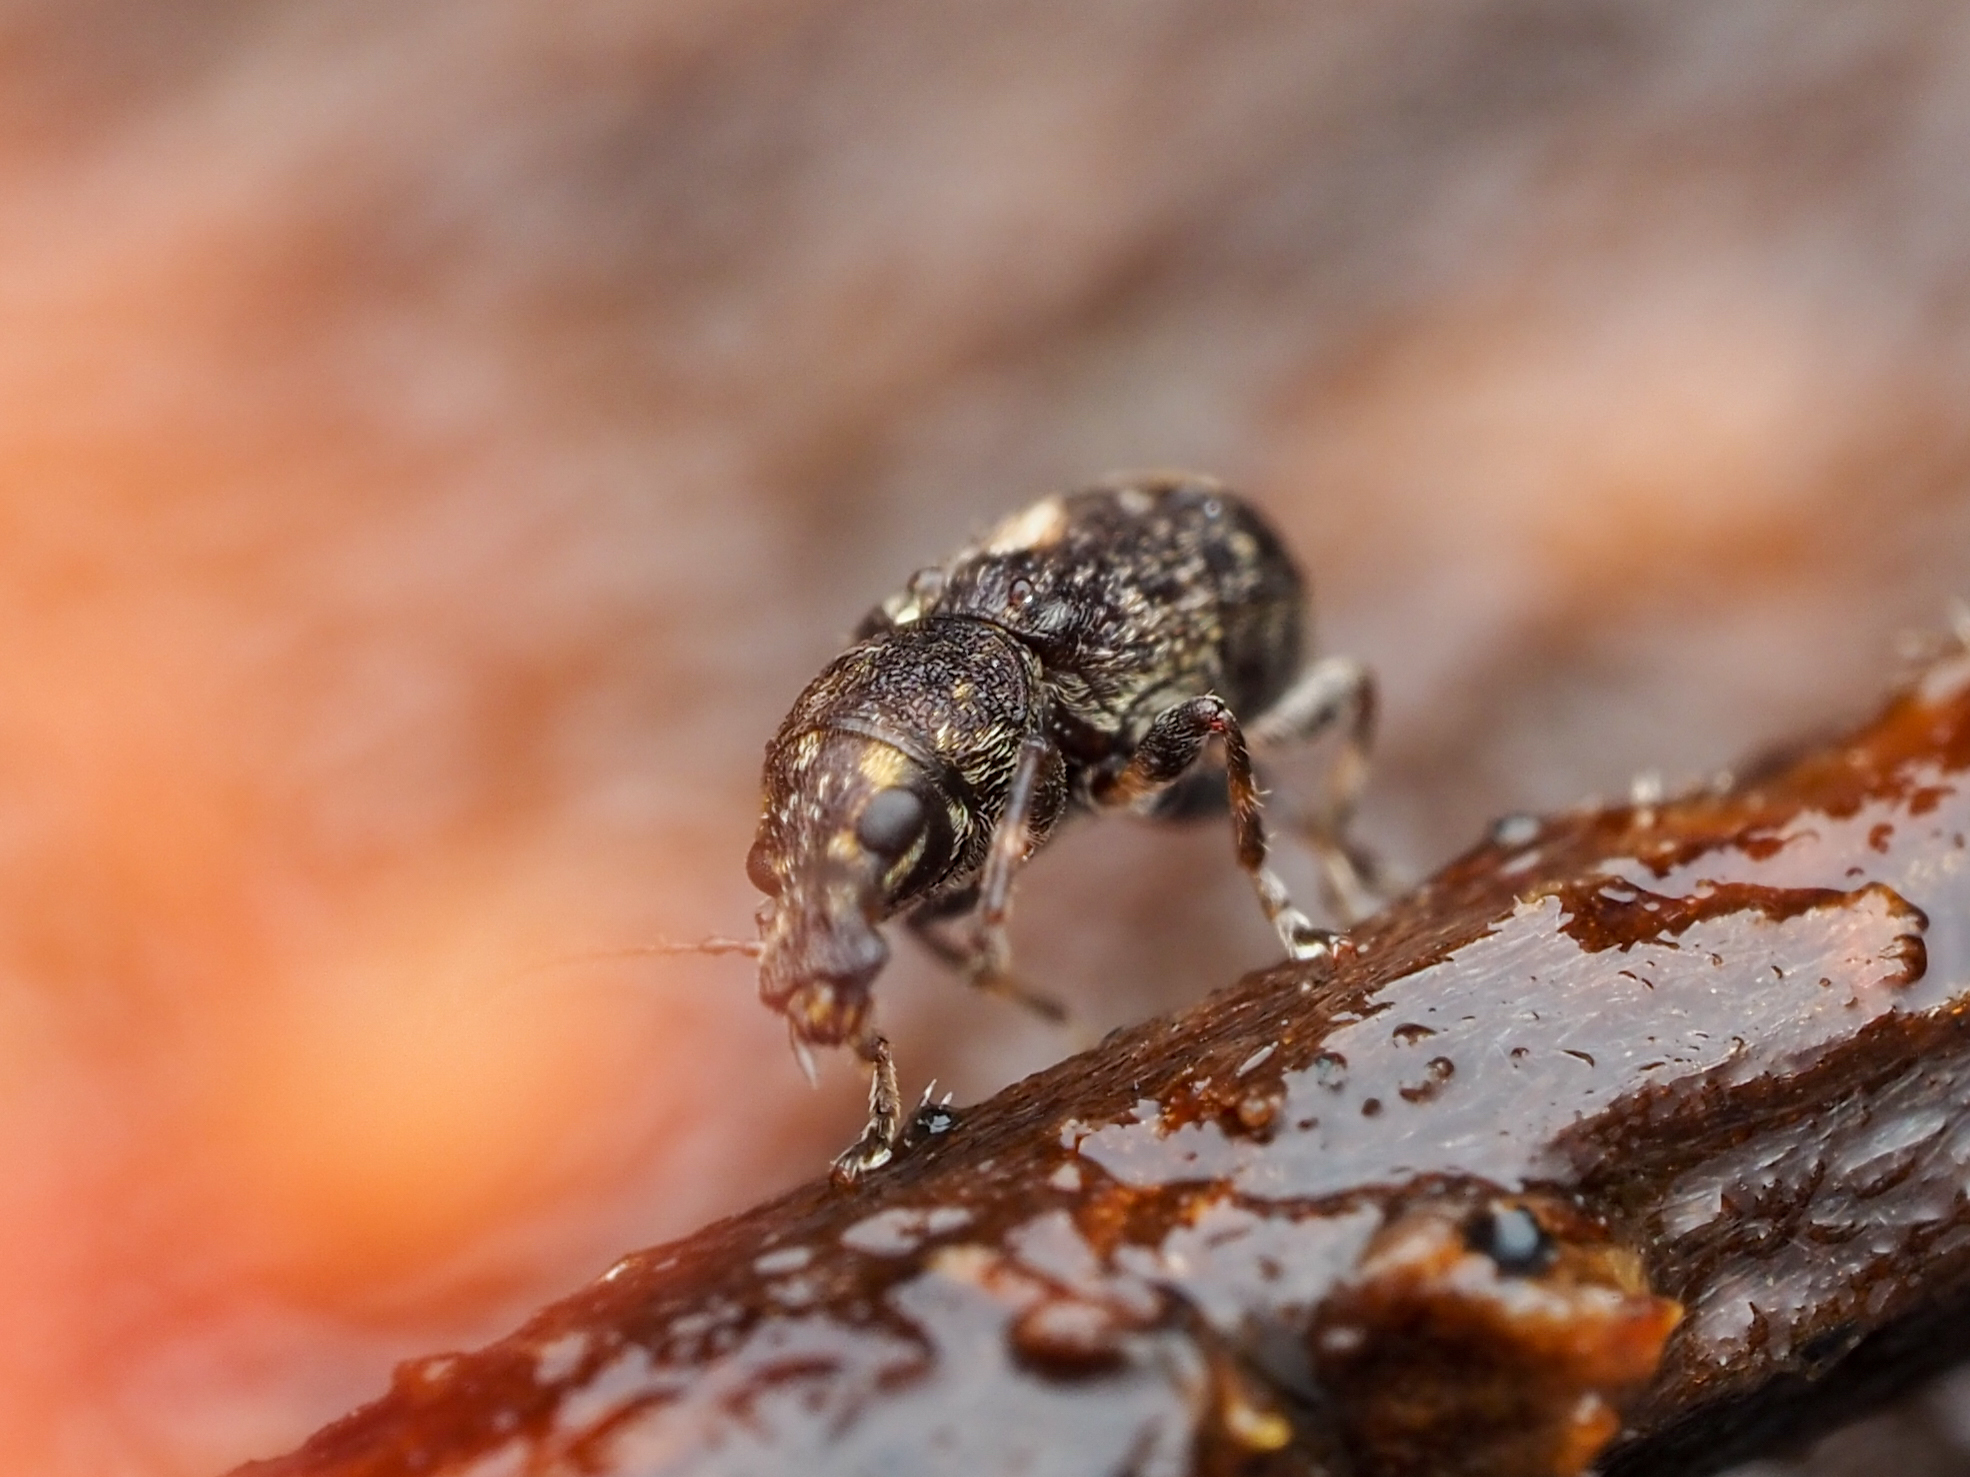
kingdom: Animalia
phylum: Arthropoda
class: Insecta
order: Coleoptera
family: Anthribidae
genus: Sharpius
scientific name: Sharpius
